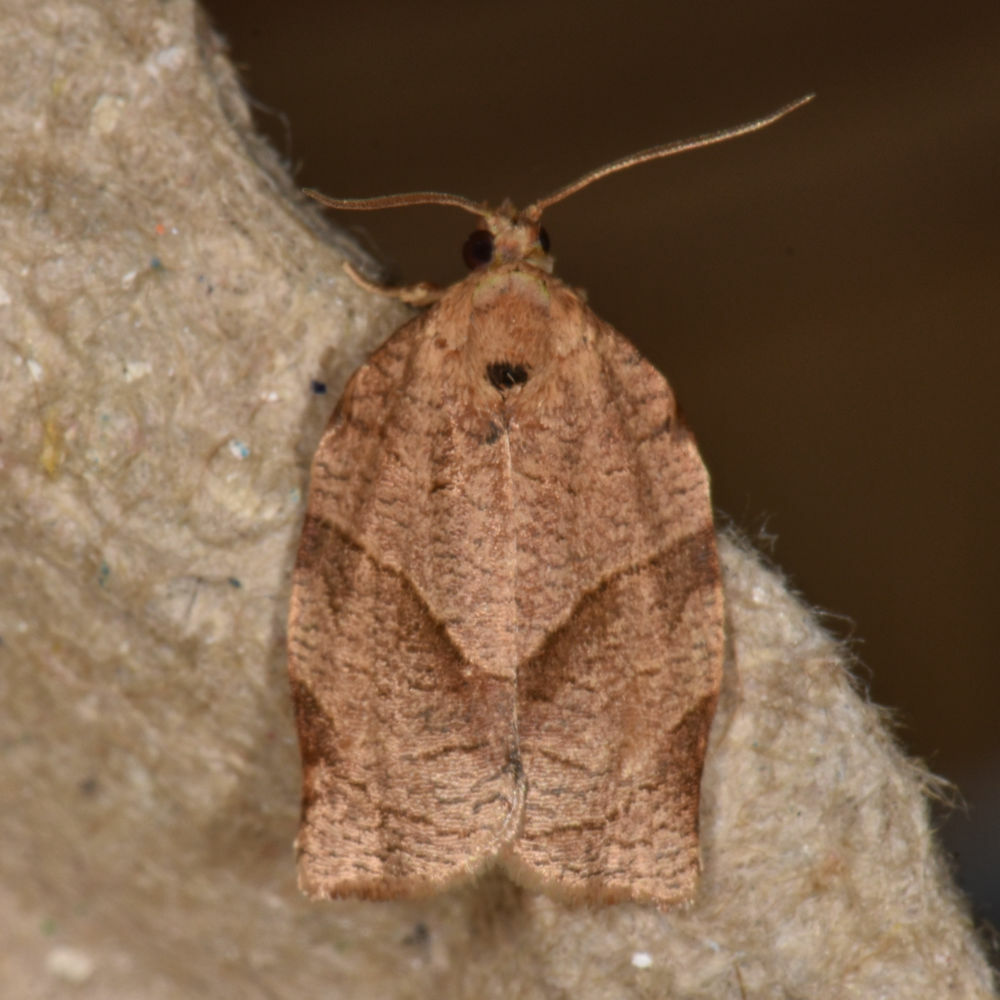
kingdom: Animalia
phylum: Arthropoda
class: Insecta
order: Lepidoptera
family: Tortricidae
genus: Choristoneura
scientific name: Choristoneura rosaceana
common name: Oblique-banded leafroller moth
